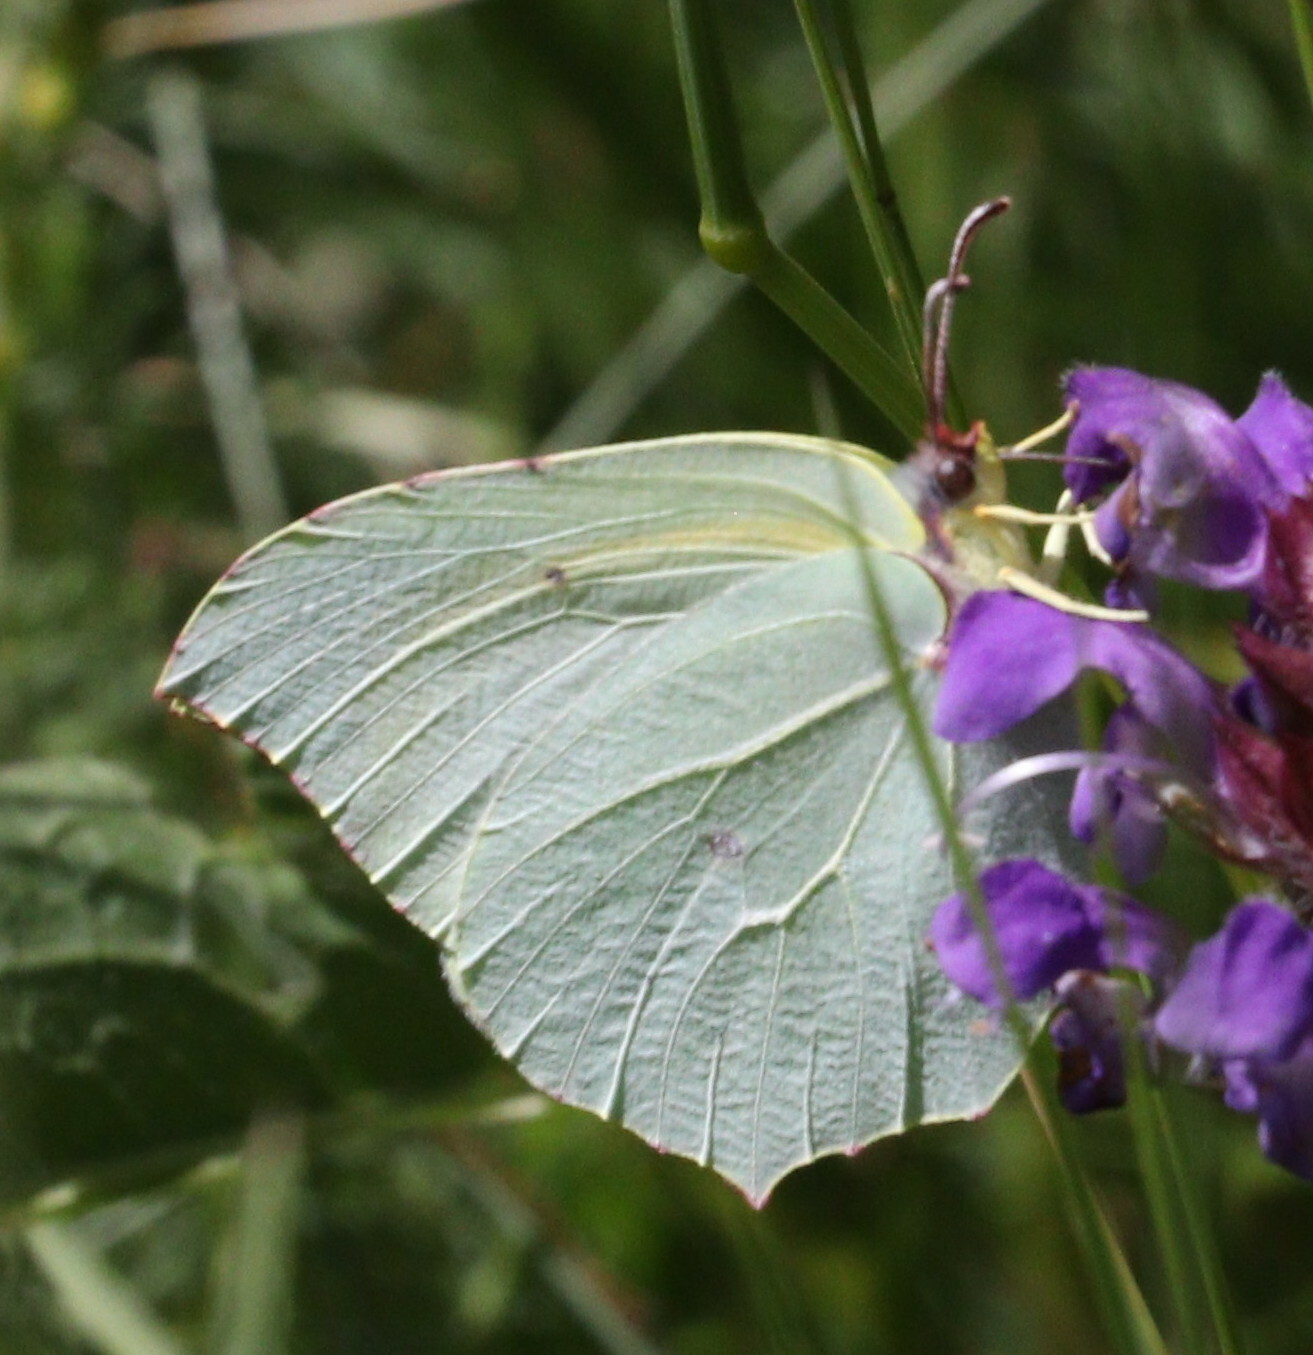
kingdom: Animalia
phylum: Arthropoda
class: Insecta
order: Lepidoptera
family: Pieridae
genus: Gonepteryx
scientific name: Gonepteryx cleopatra
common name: Cleopatra
